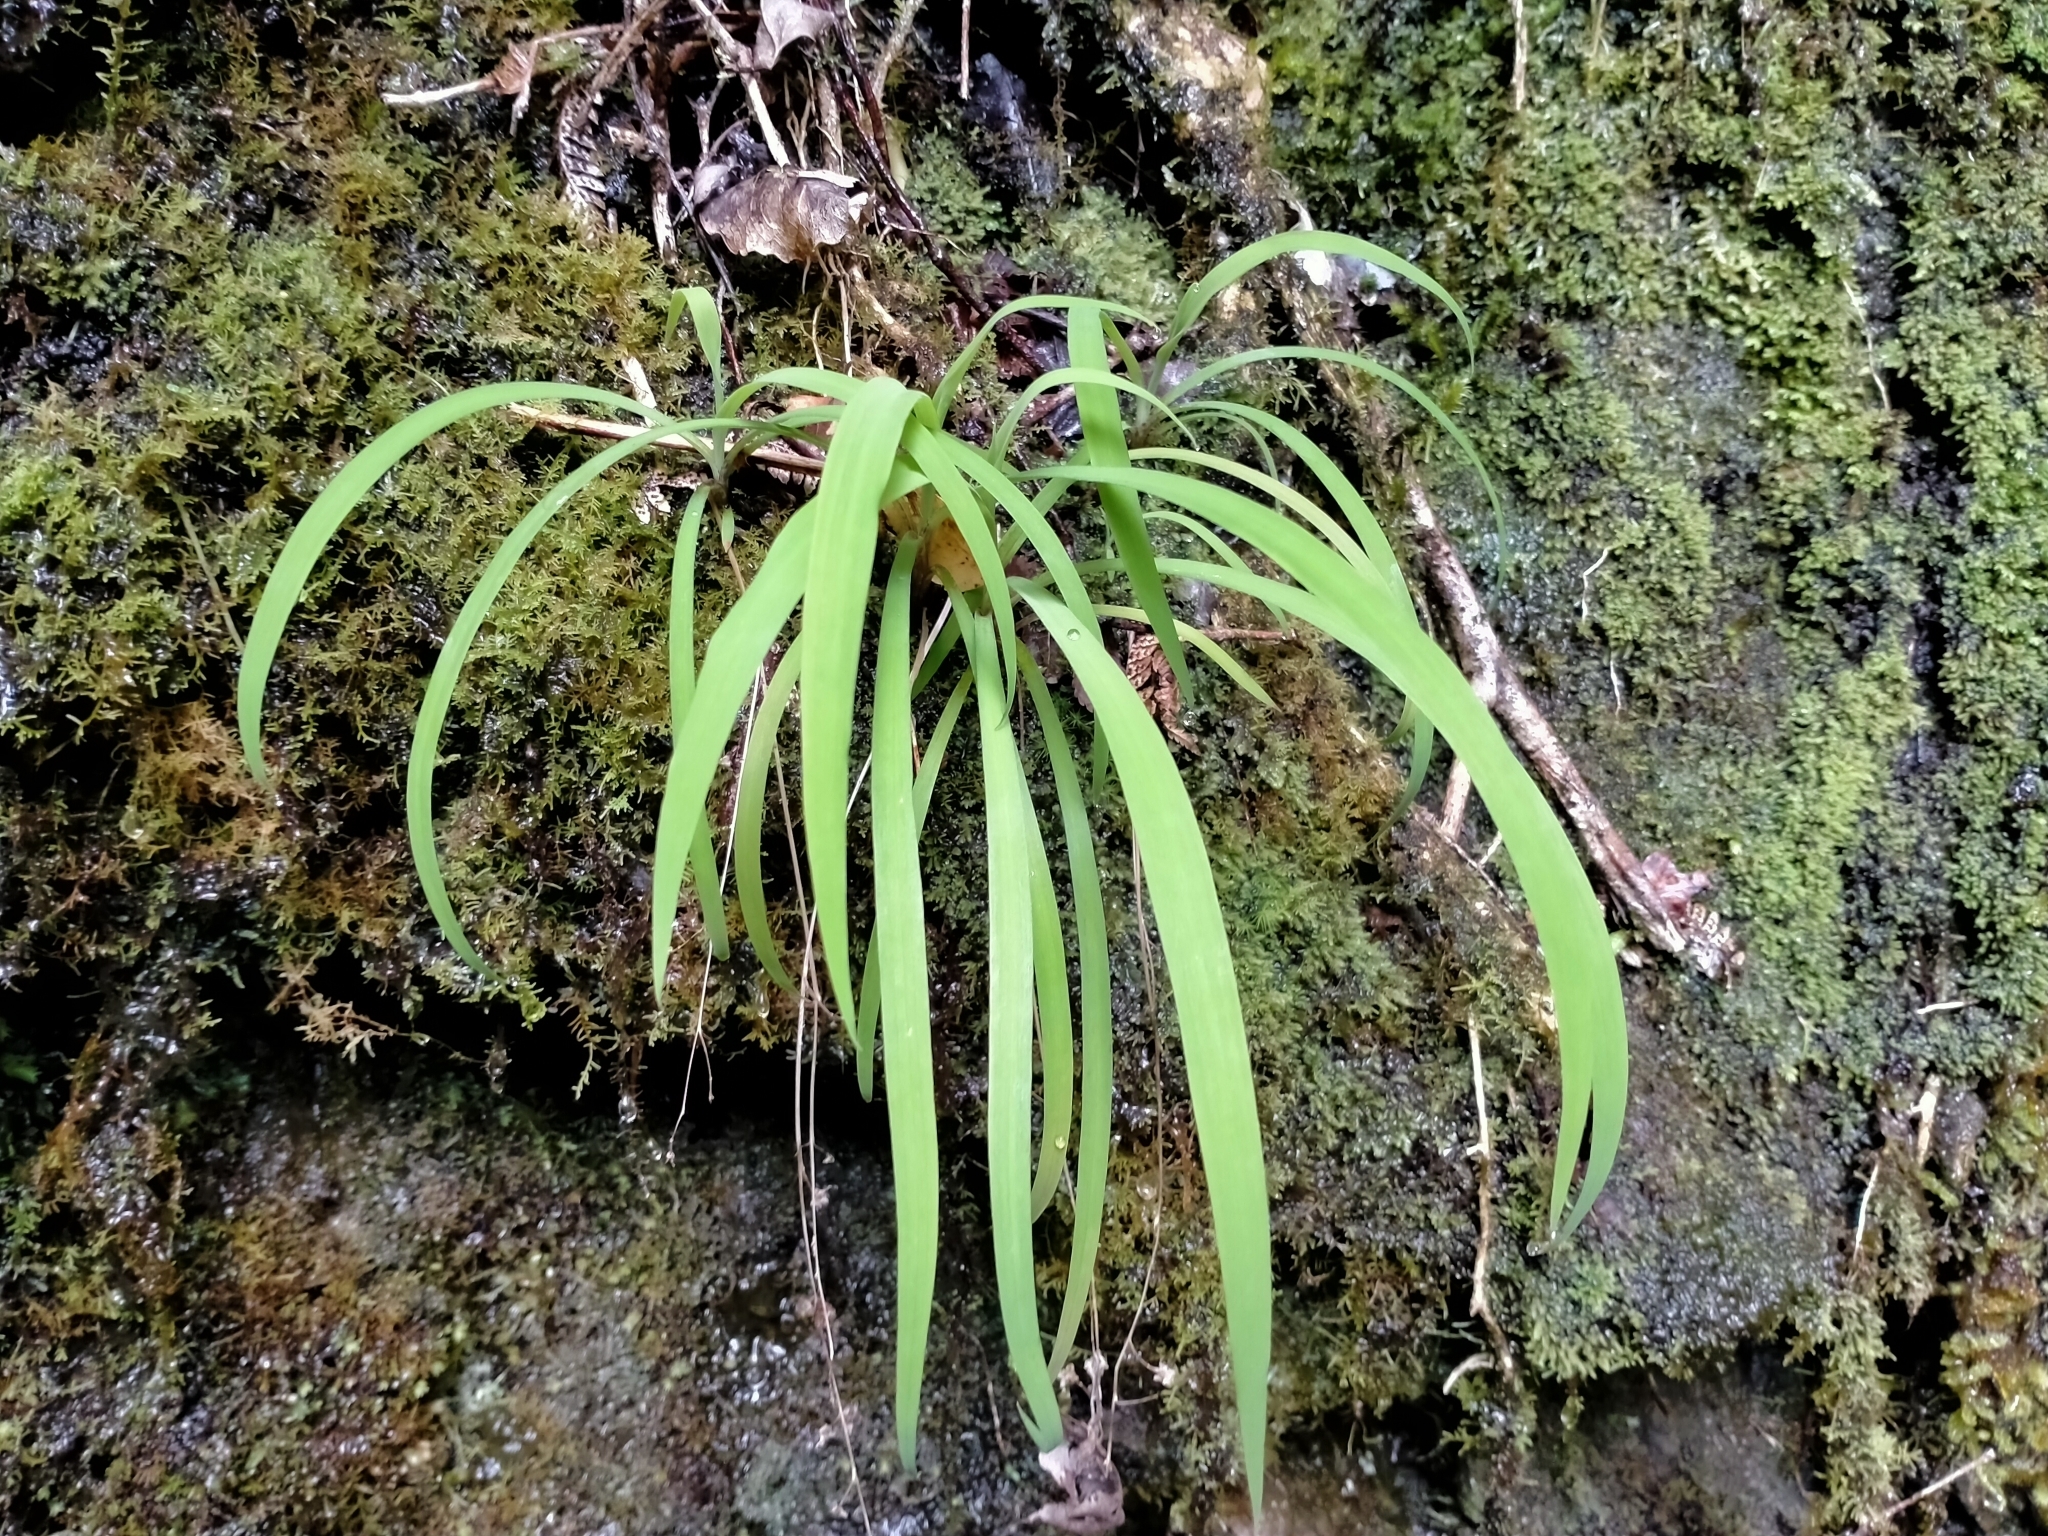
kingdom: Plantae
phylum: Tracheophyta
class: Liliopsida
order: Asparagales
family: Asparagaceae
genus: Arthropodium
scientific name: Arthropodium candidum
